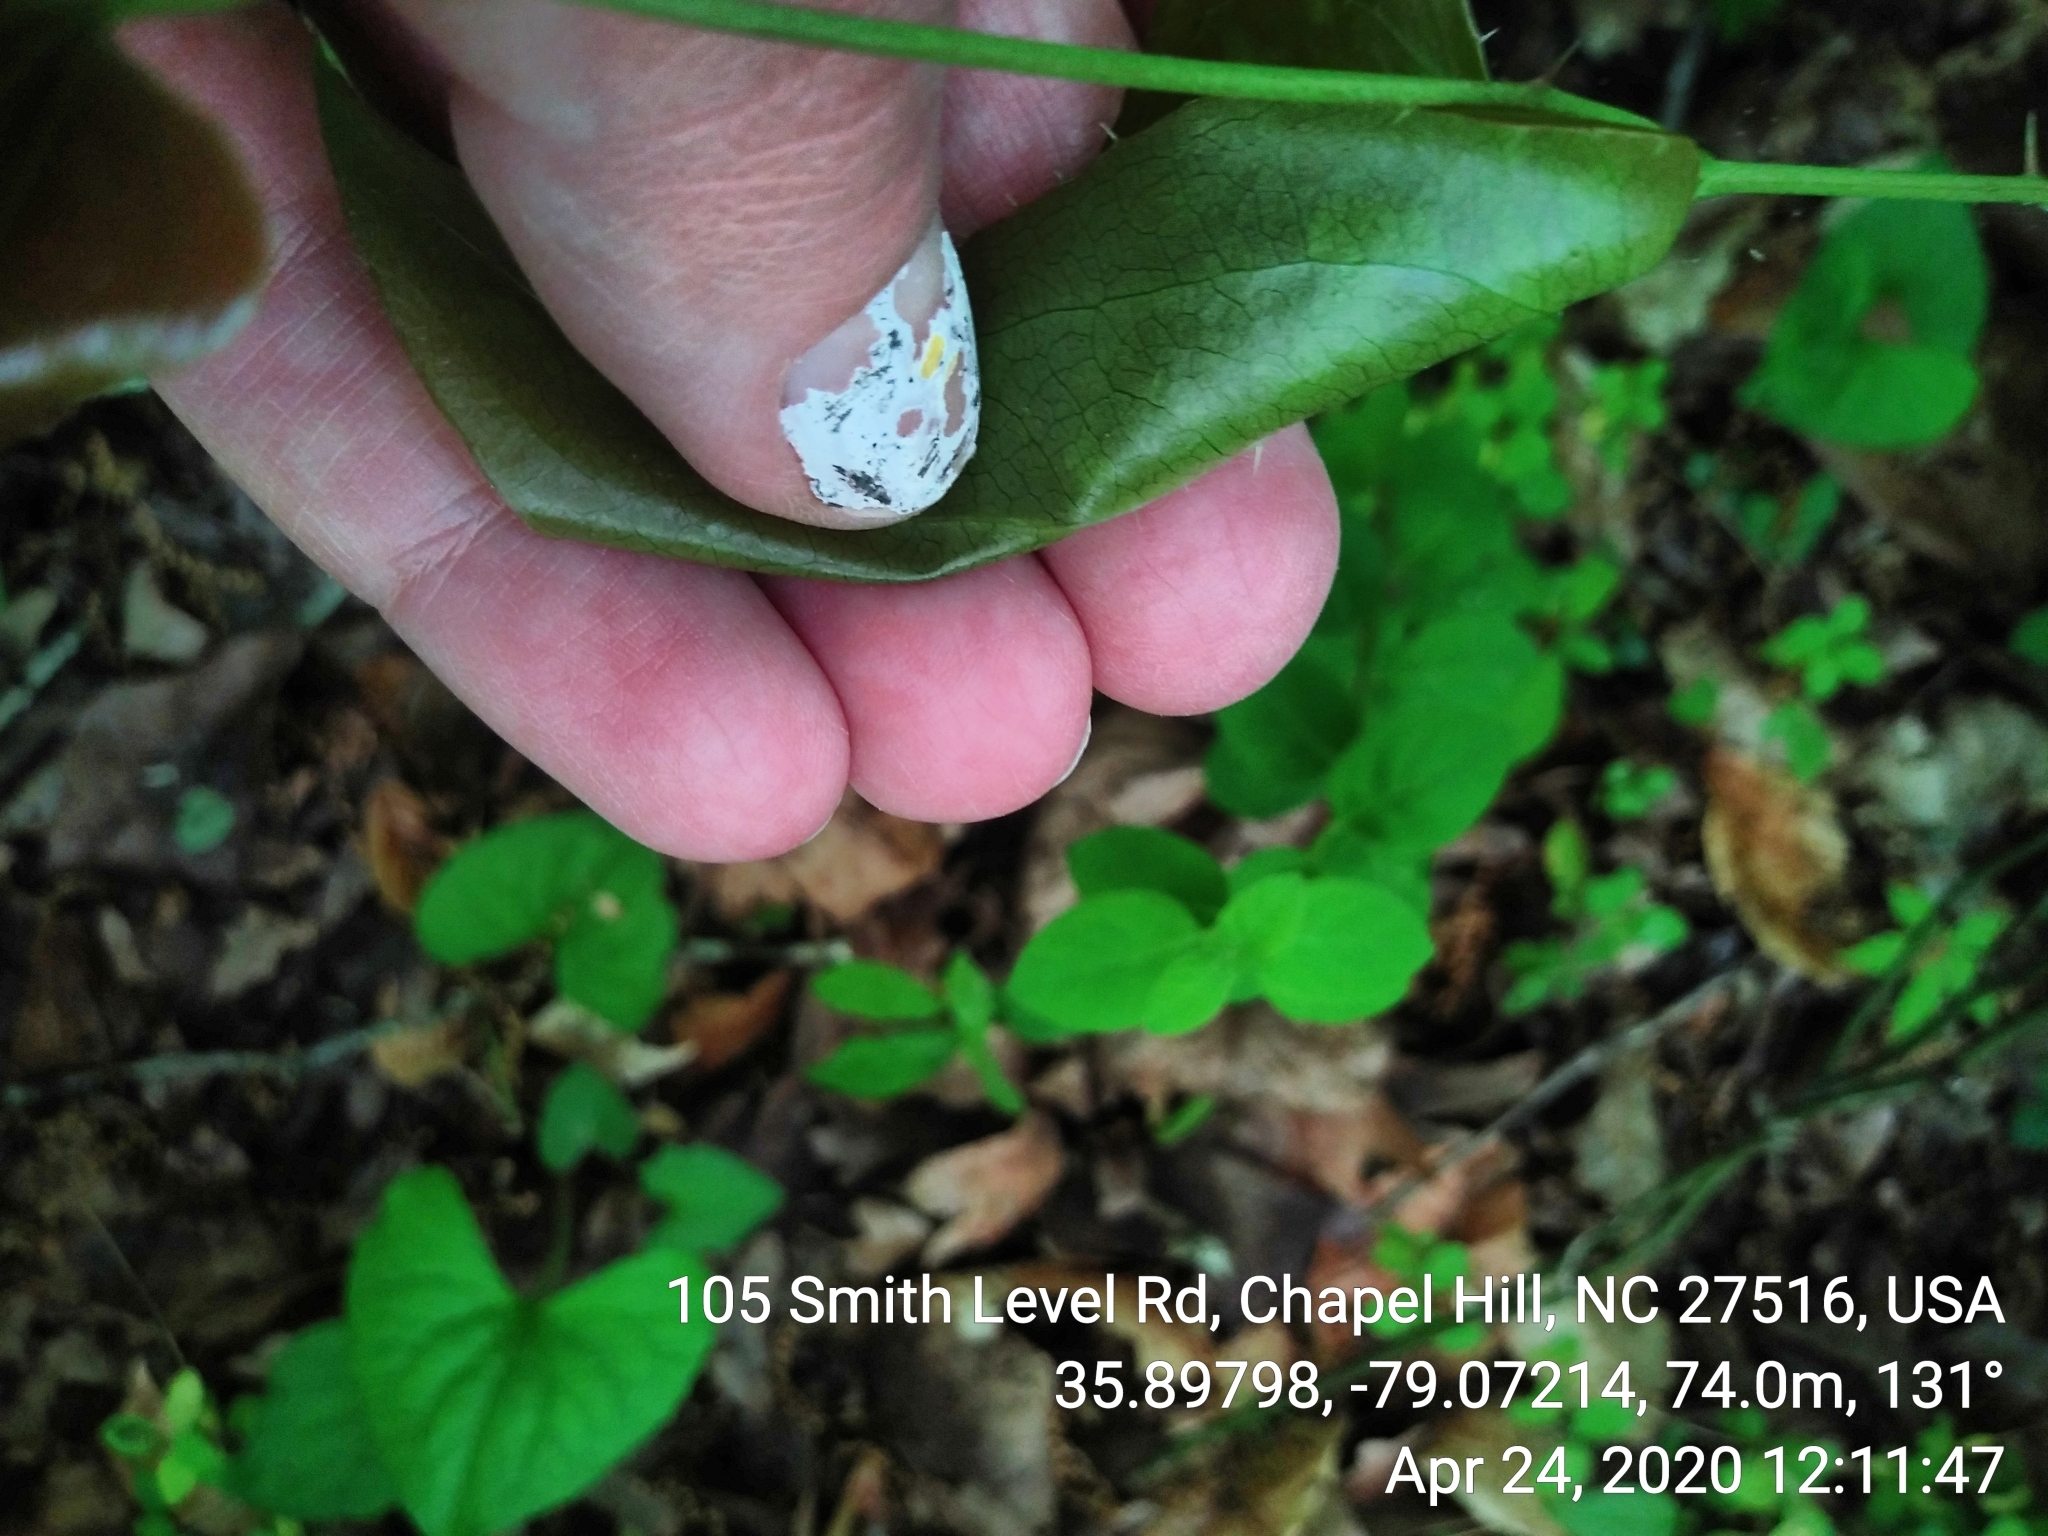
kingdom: Plantae
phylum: Tracheophyta
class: Liliopsida
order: Liliales
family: Smilacaceae
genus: Smilax
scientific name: Smilax bona-nox
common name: Catbrier
